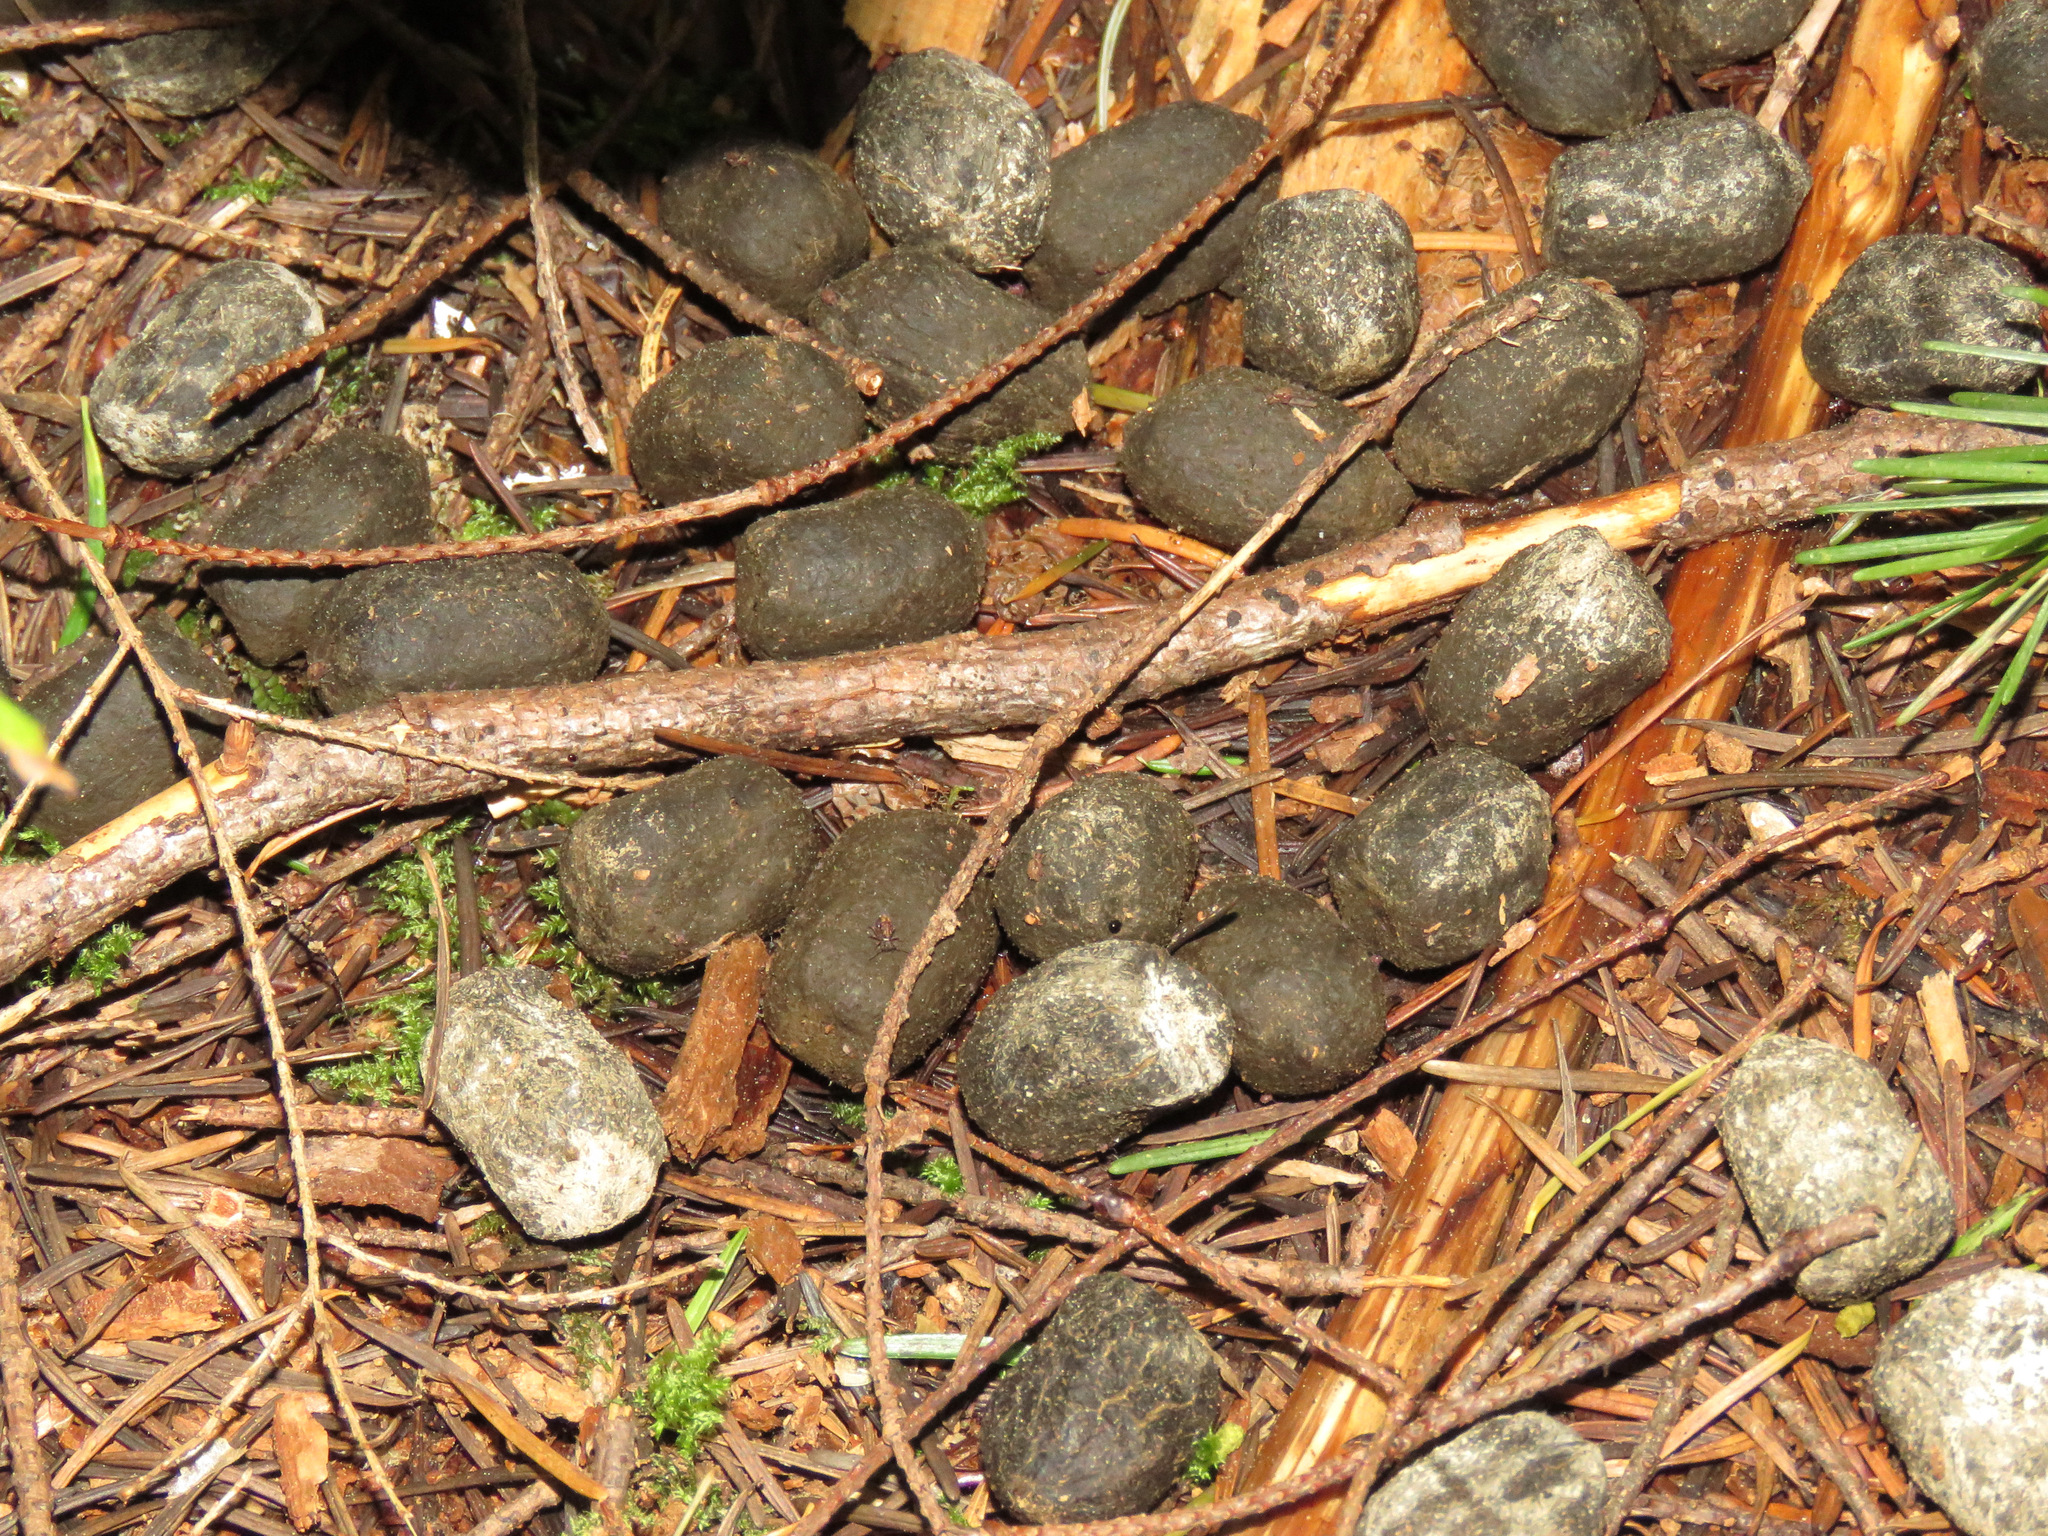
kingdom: Animalia
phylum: Chordata
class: Mammalia
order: Artiodactyla
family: Cervidae
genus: Cervus
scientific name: Cervus elaphus
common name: Red deer
